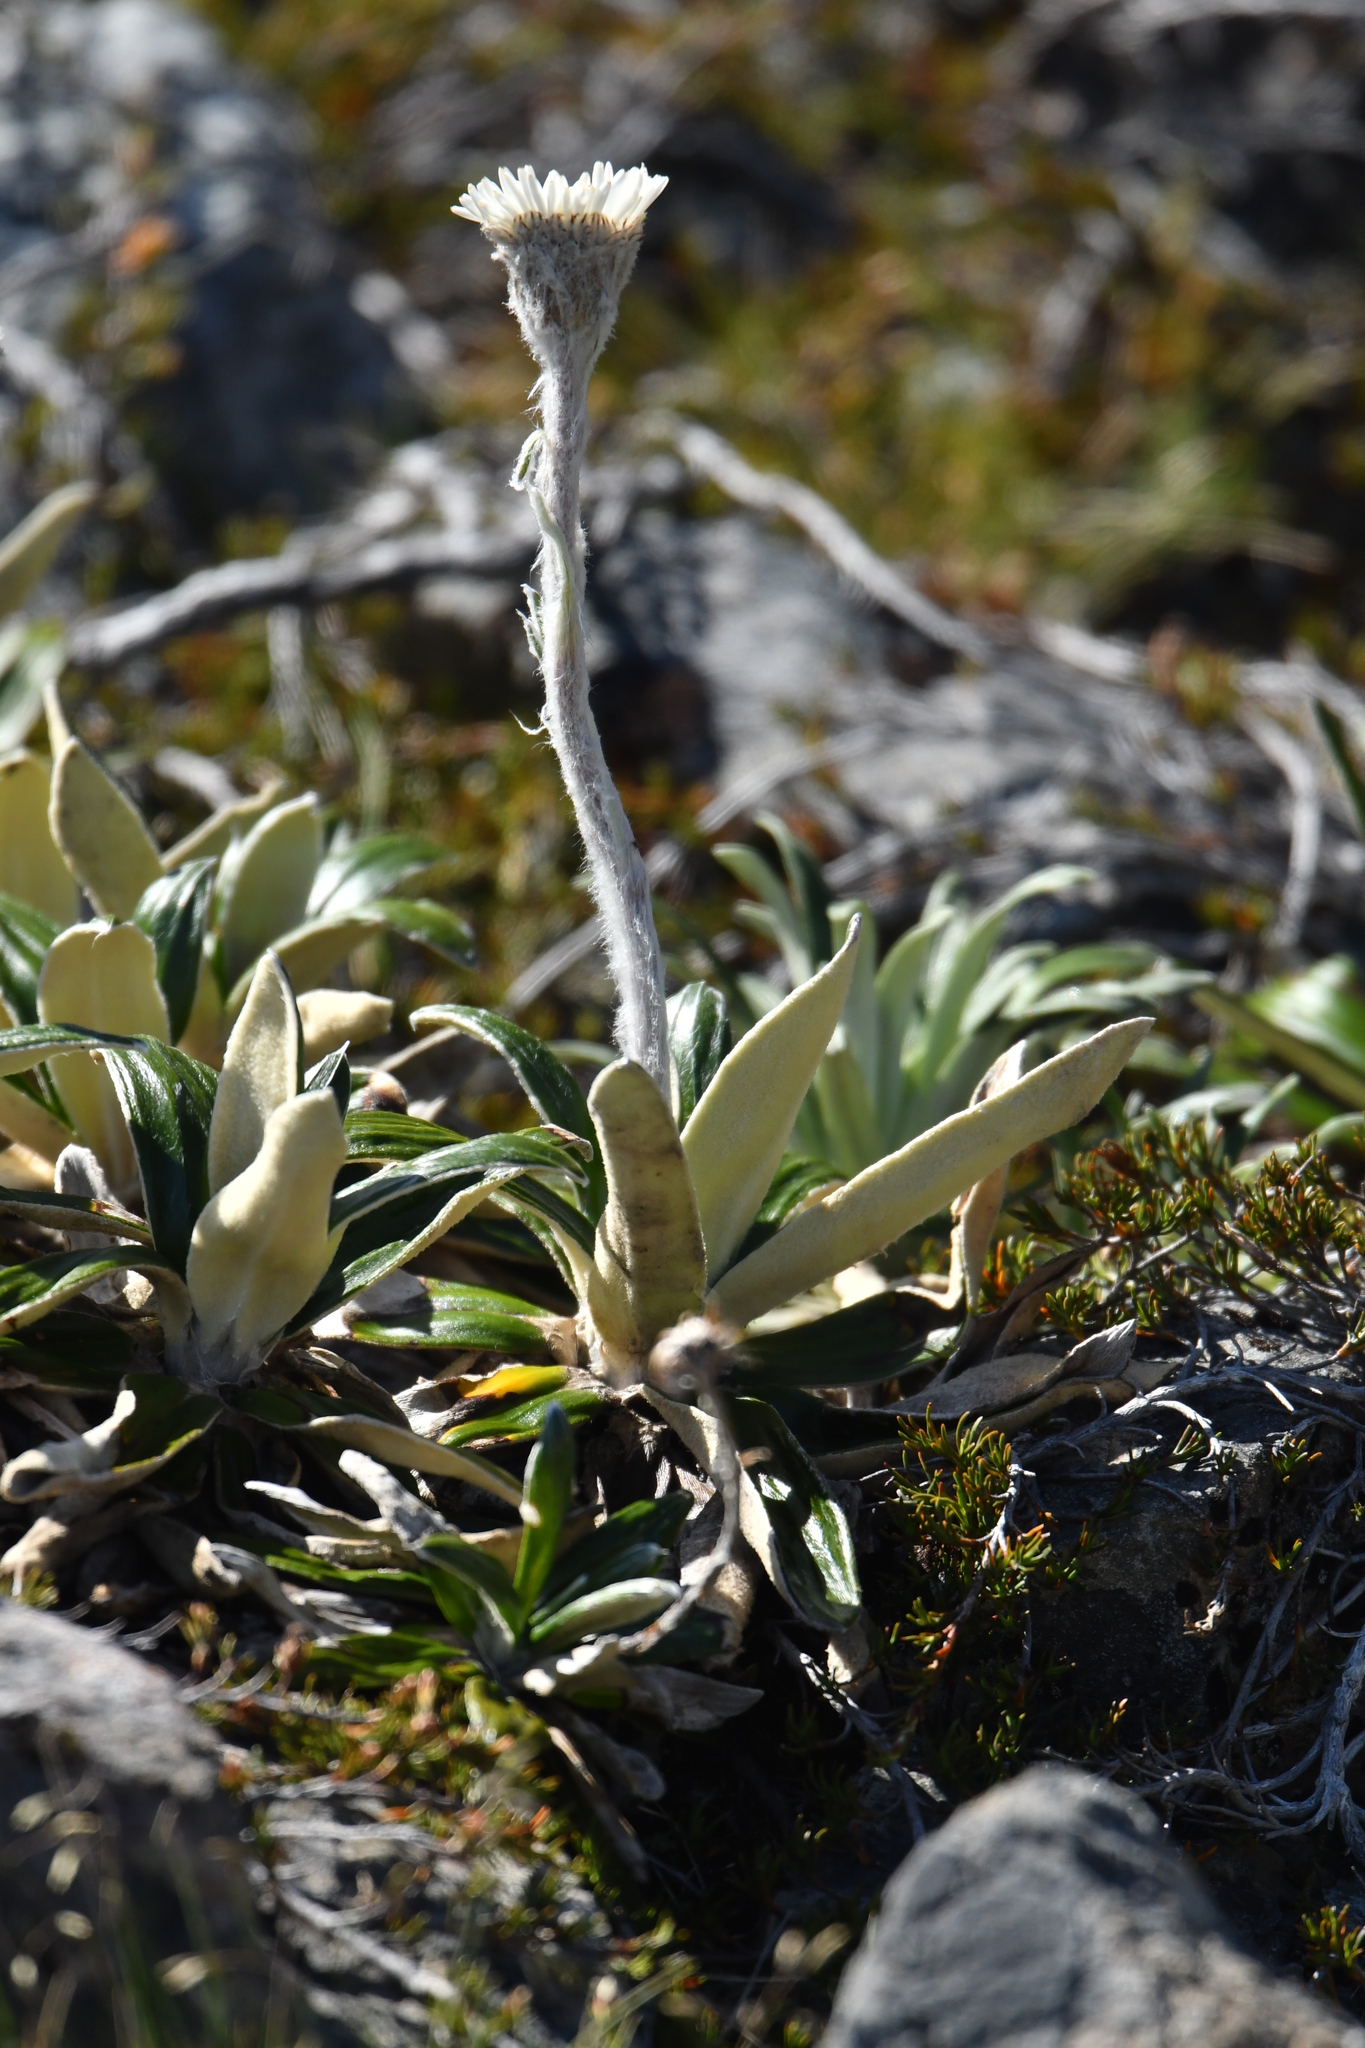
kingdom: Plantae
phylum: Tracheophyta
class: Magnoliopsida
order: Asterales
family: Asteraceae
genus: Celmisia
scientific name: Celmisia spectabilis
